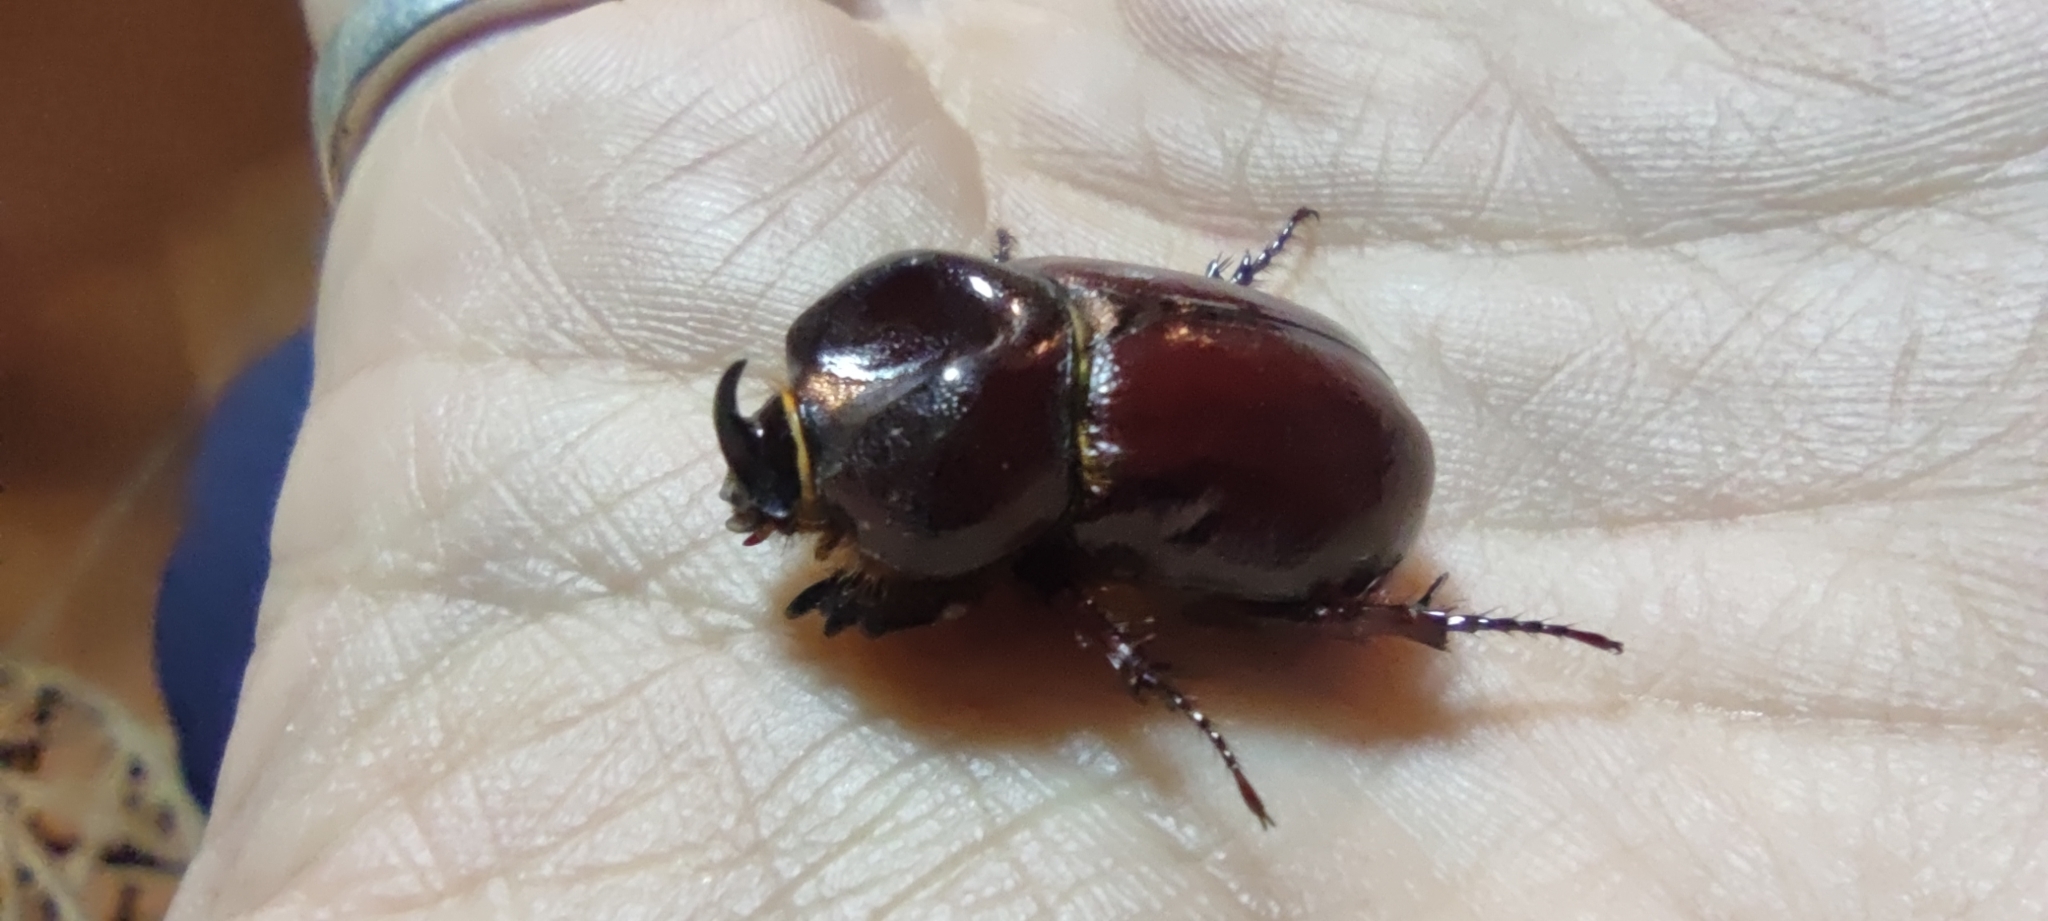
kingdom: Animalia
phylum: Arthropoda
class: Insecta
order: Coleoptera
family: Scarabaeidae
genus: Phyllognathus
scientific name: Phyllognathus excavatus
